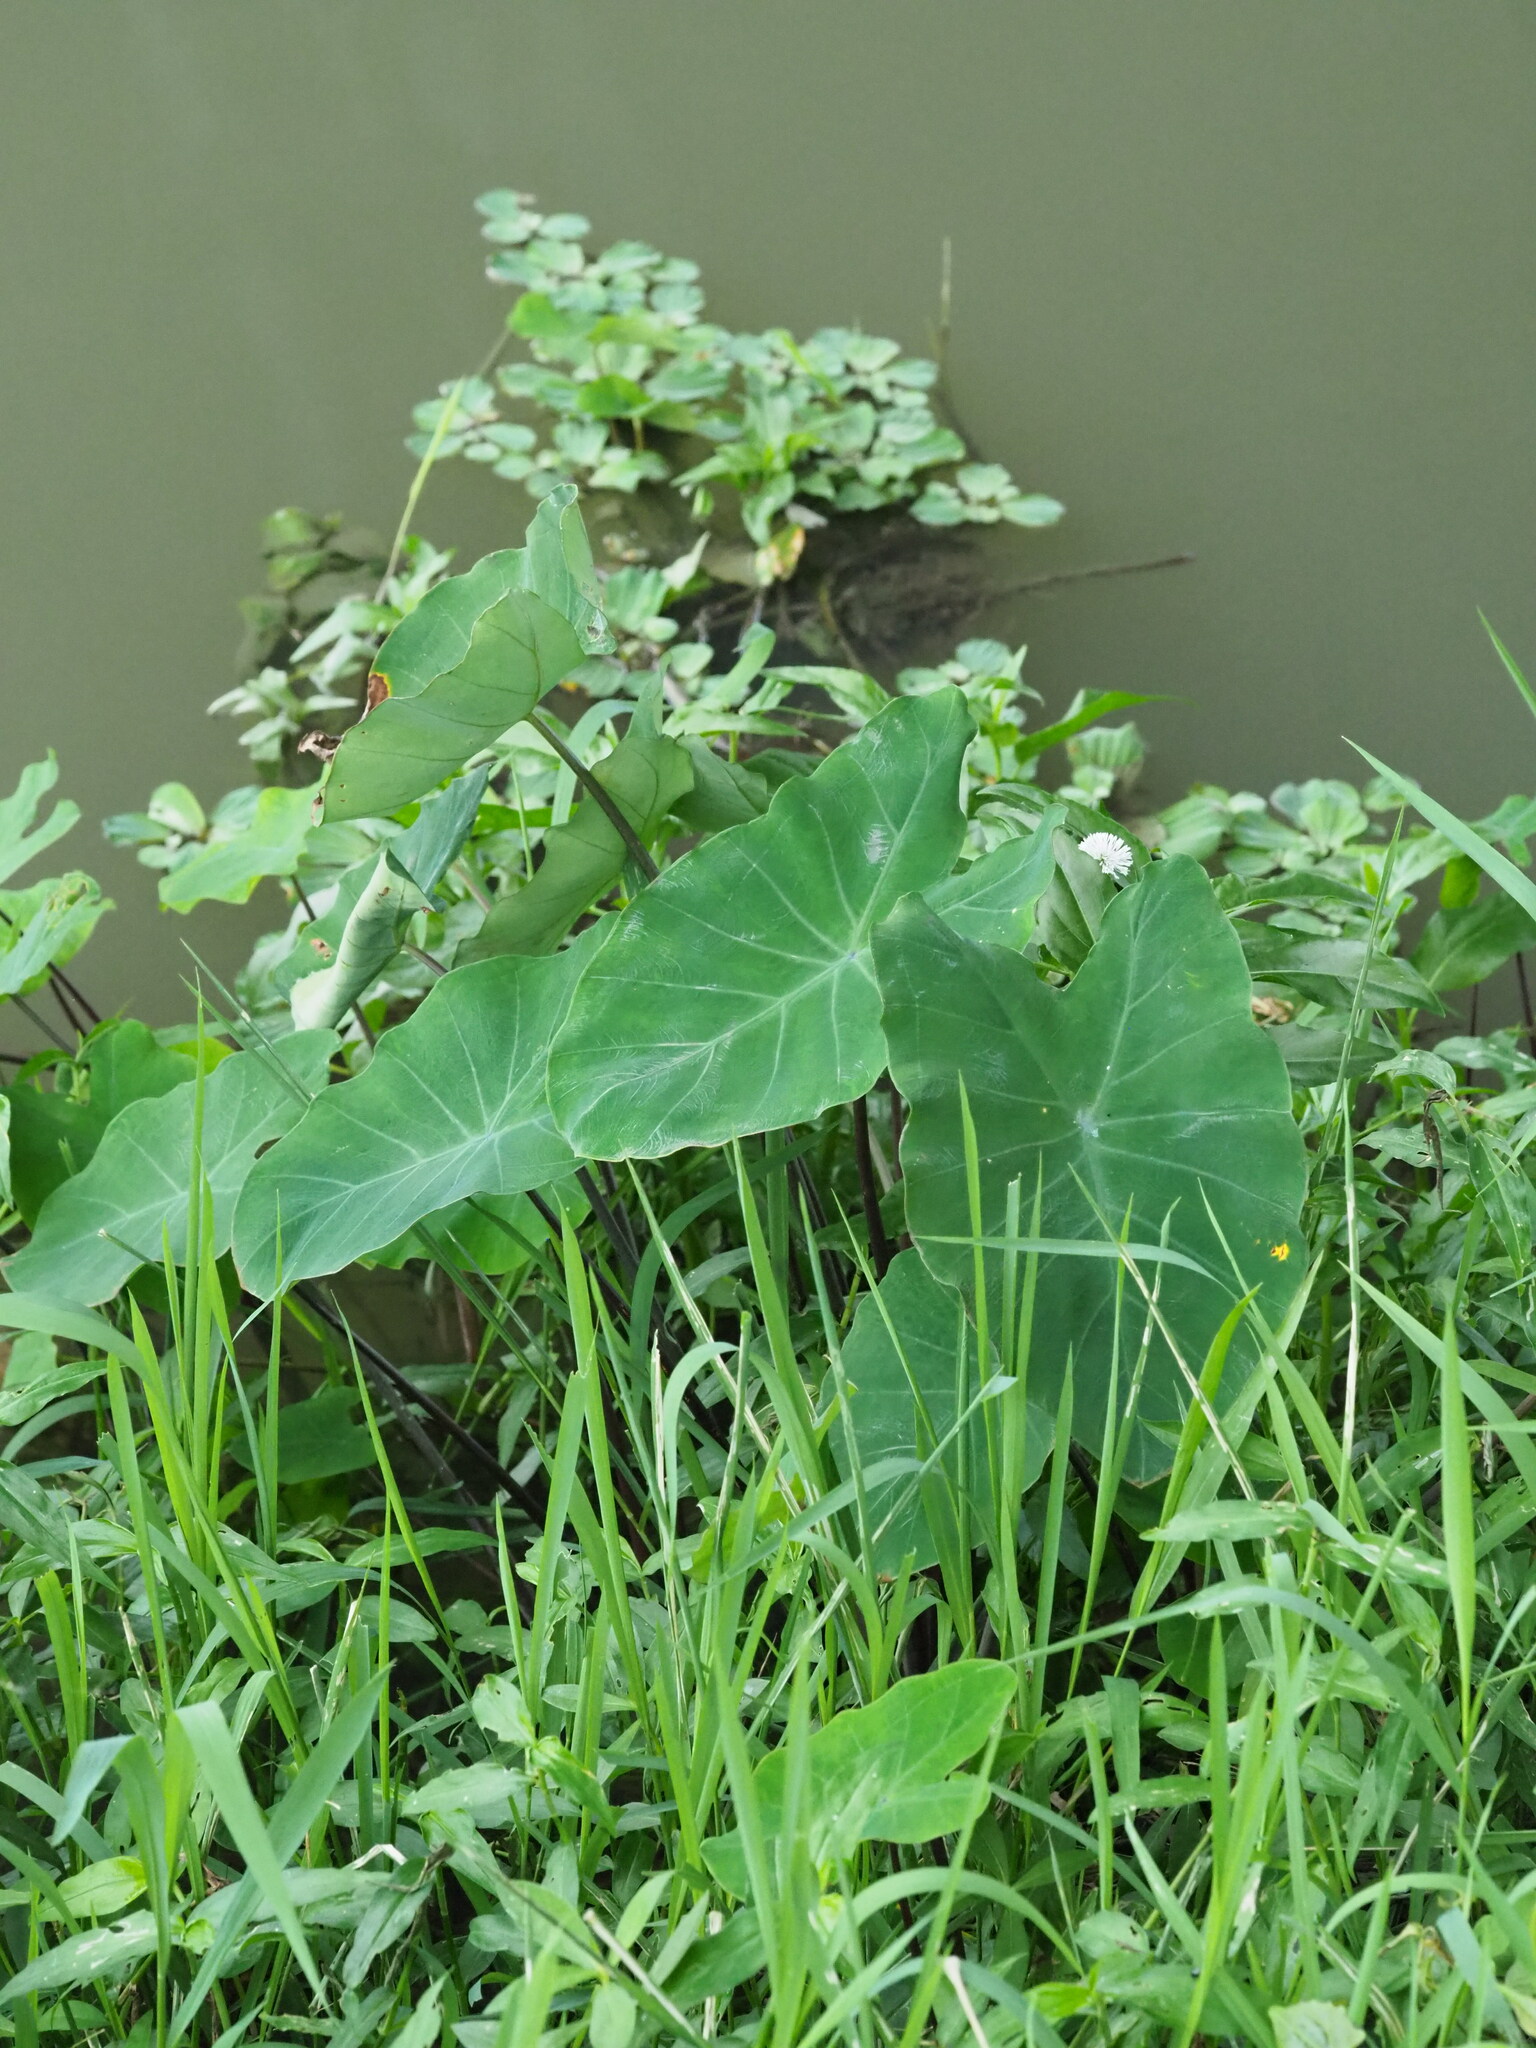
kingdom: Plantae
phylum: Tracheophyta
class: Liliopsida
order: Alismatales
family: Araceae
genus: Colocasia
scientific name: Colocasia esculenta
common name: Taro
